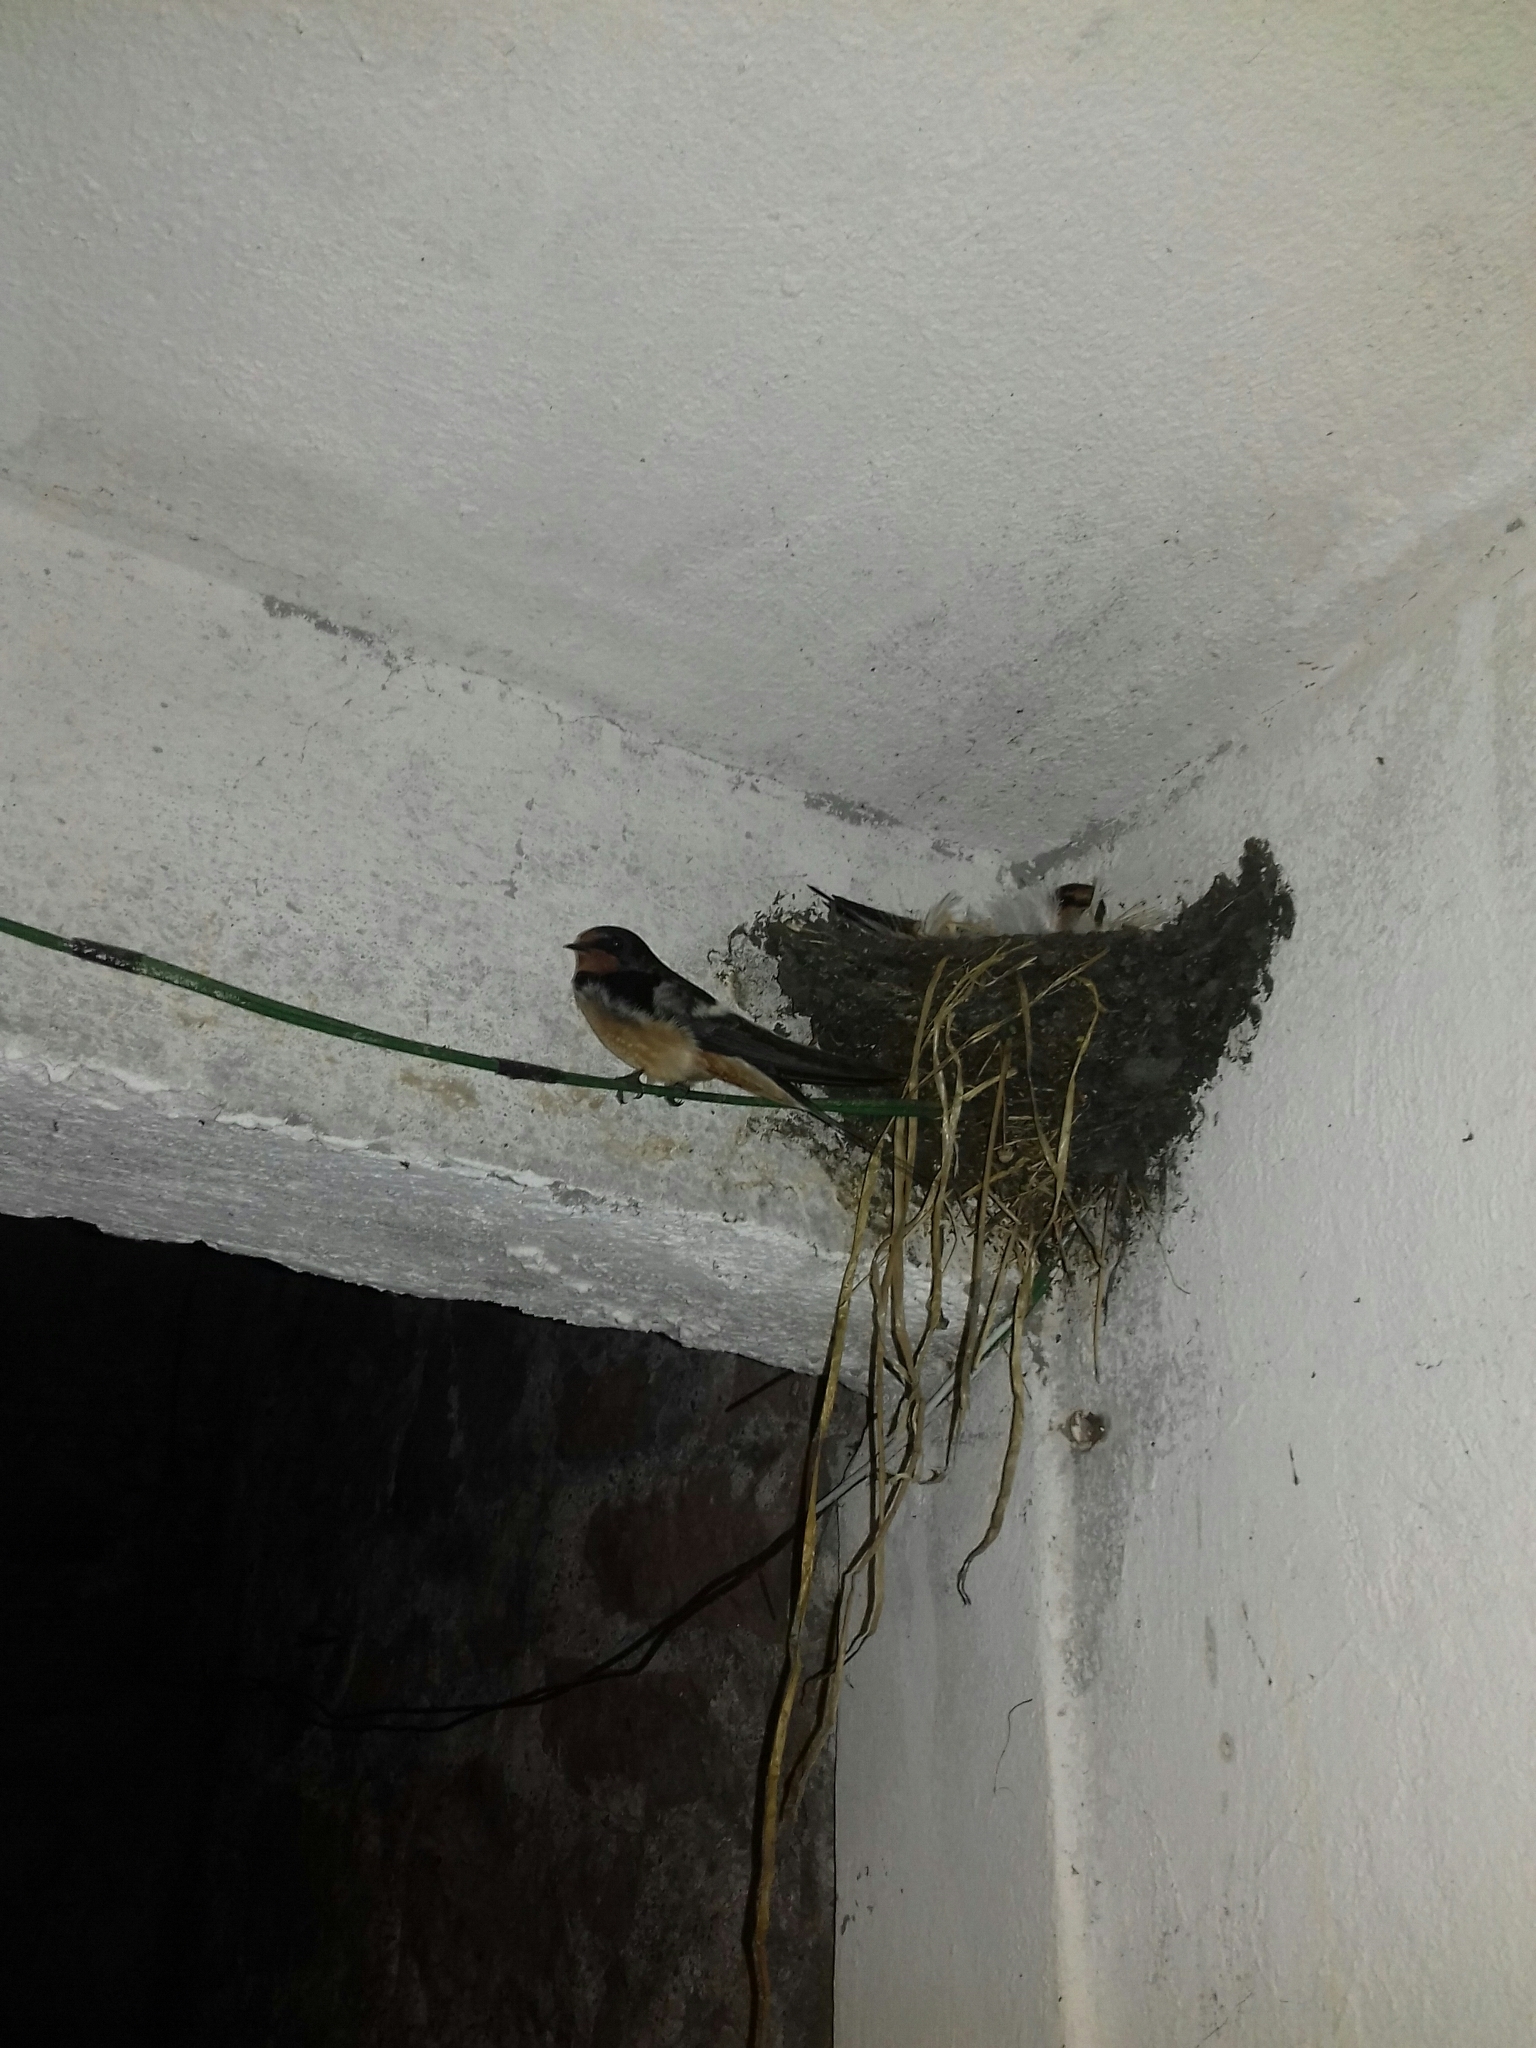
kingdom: Animalia
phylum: Chordata
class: Aves
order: Passeriformes
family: Hirundinidae
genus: Hirundo
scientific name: Hirundo rustica
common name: Barn swallow
